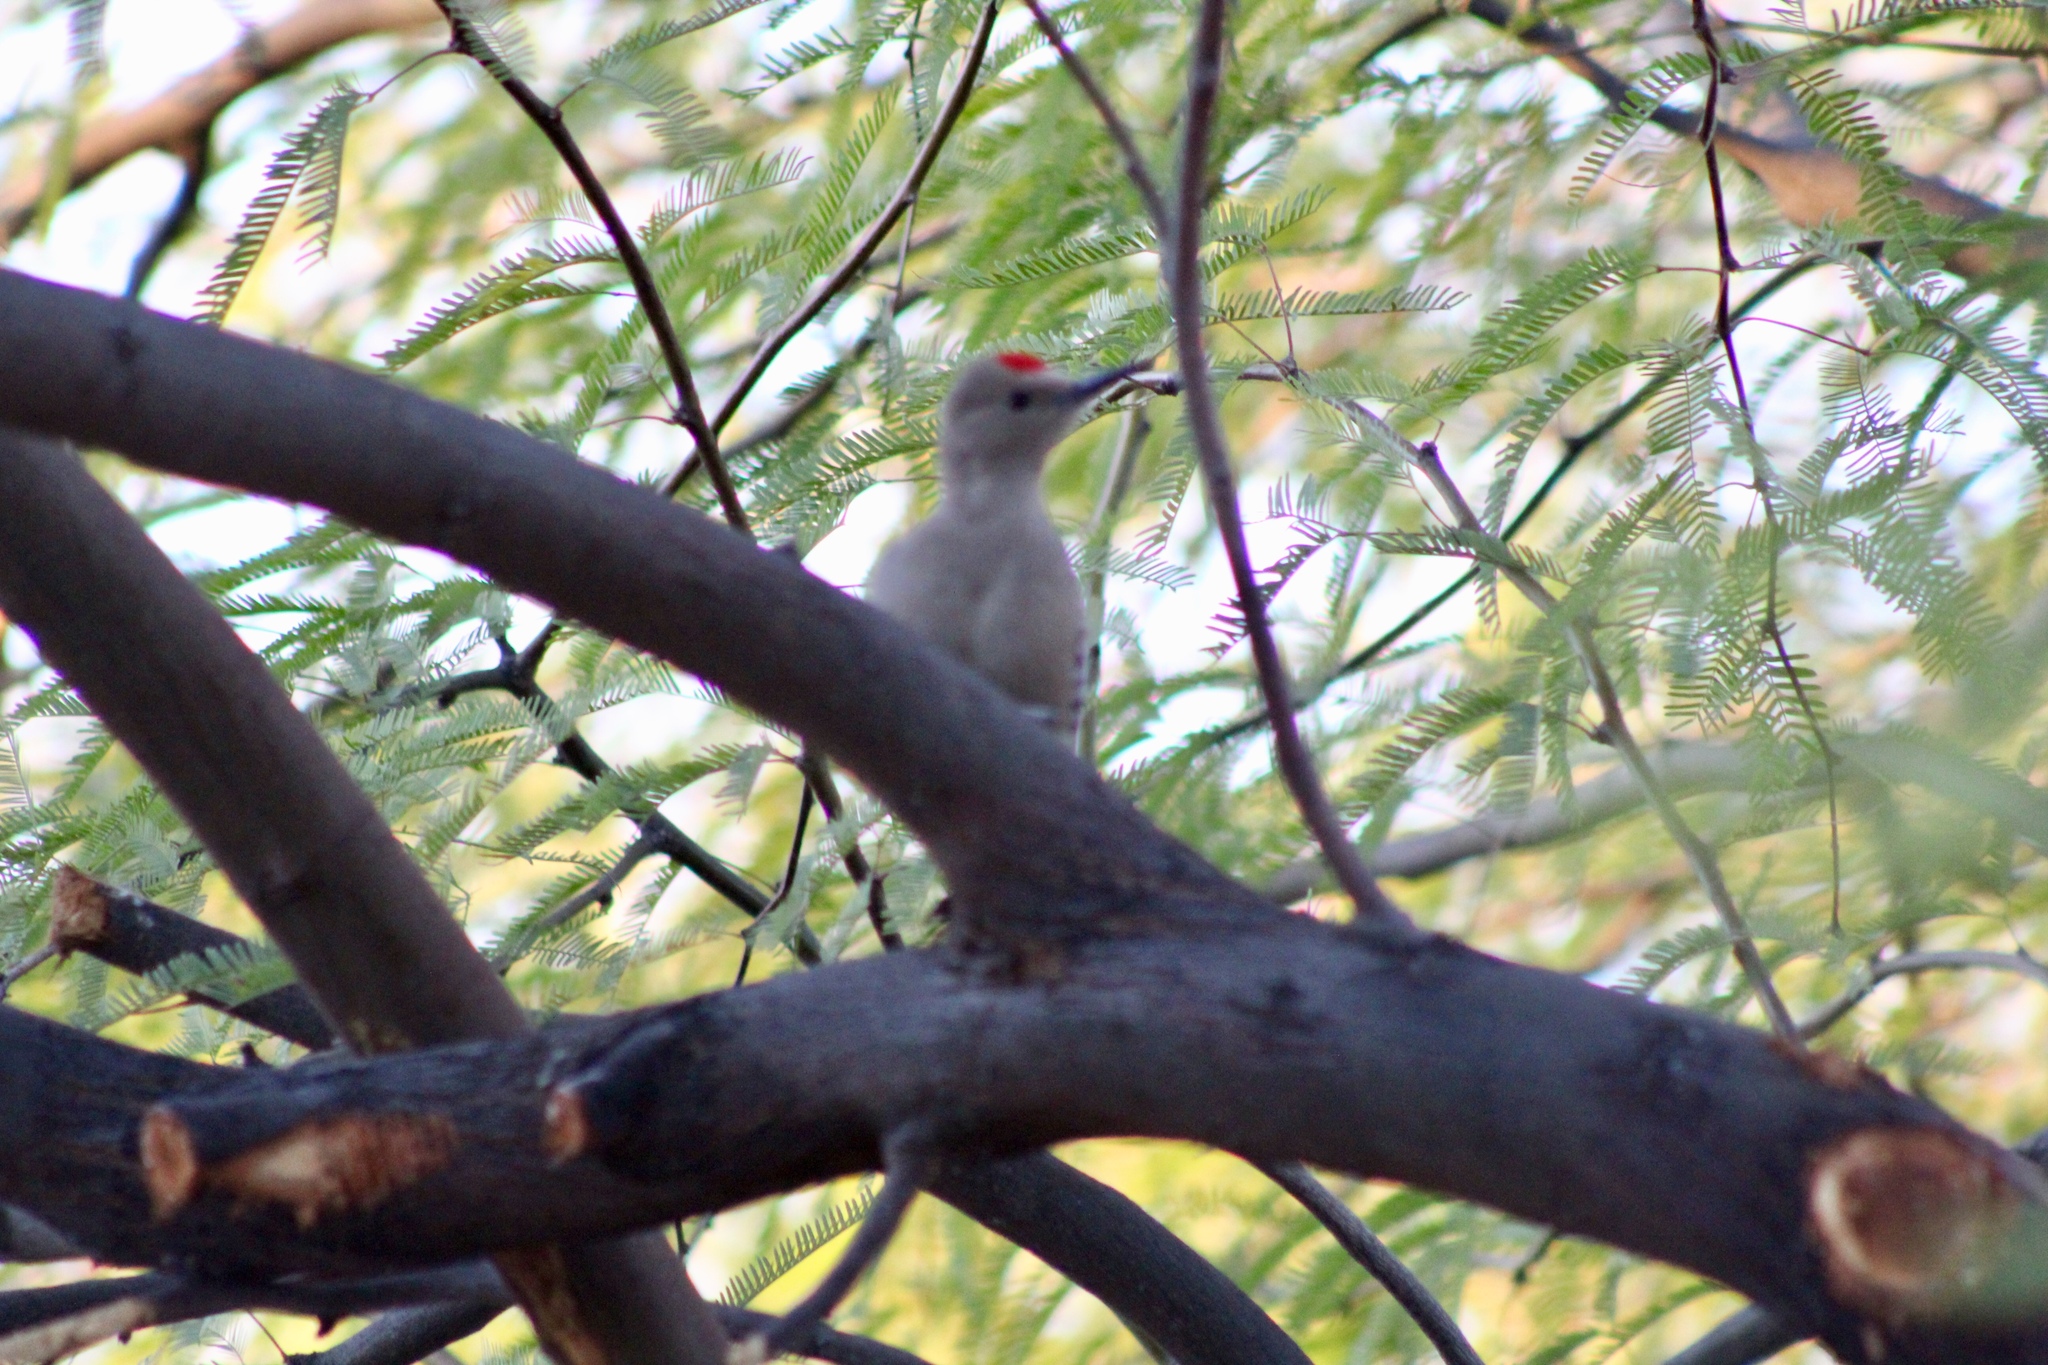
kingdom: Animalia
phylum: Chordata
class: Aves
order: Piciformes
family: Picidae
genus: Melanerpes
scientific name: Melanerpes uropygialis
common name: Gila woodpecker
